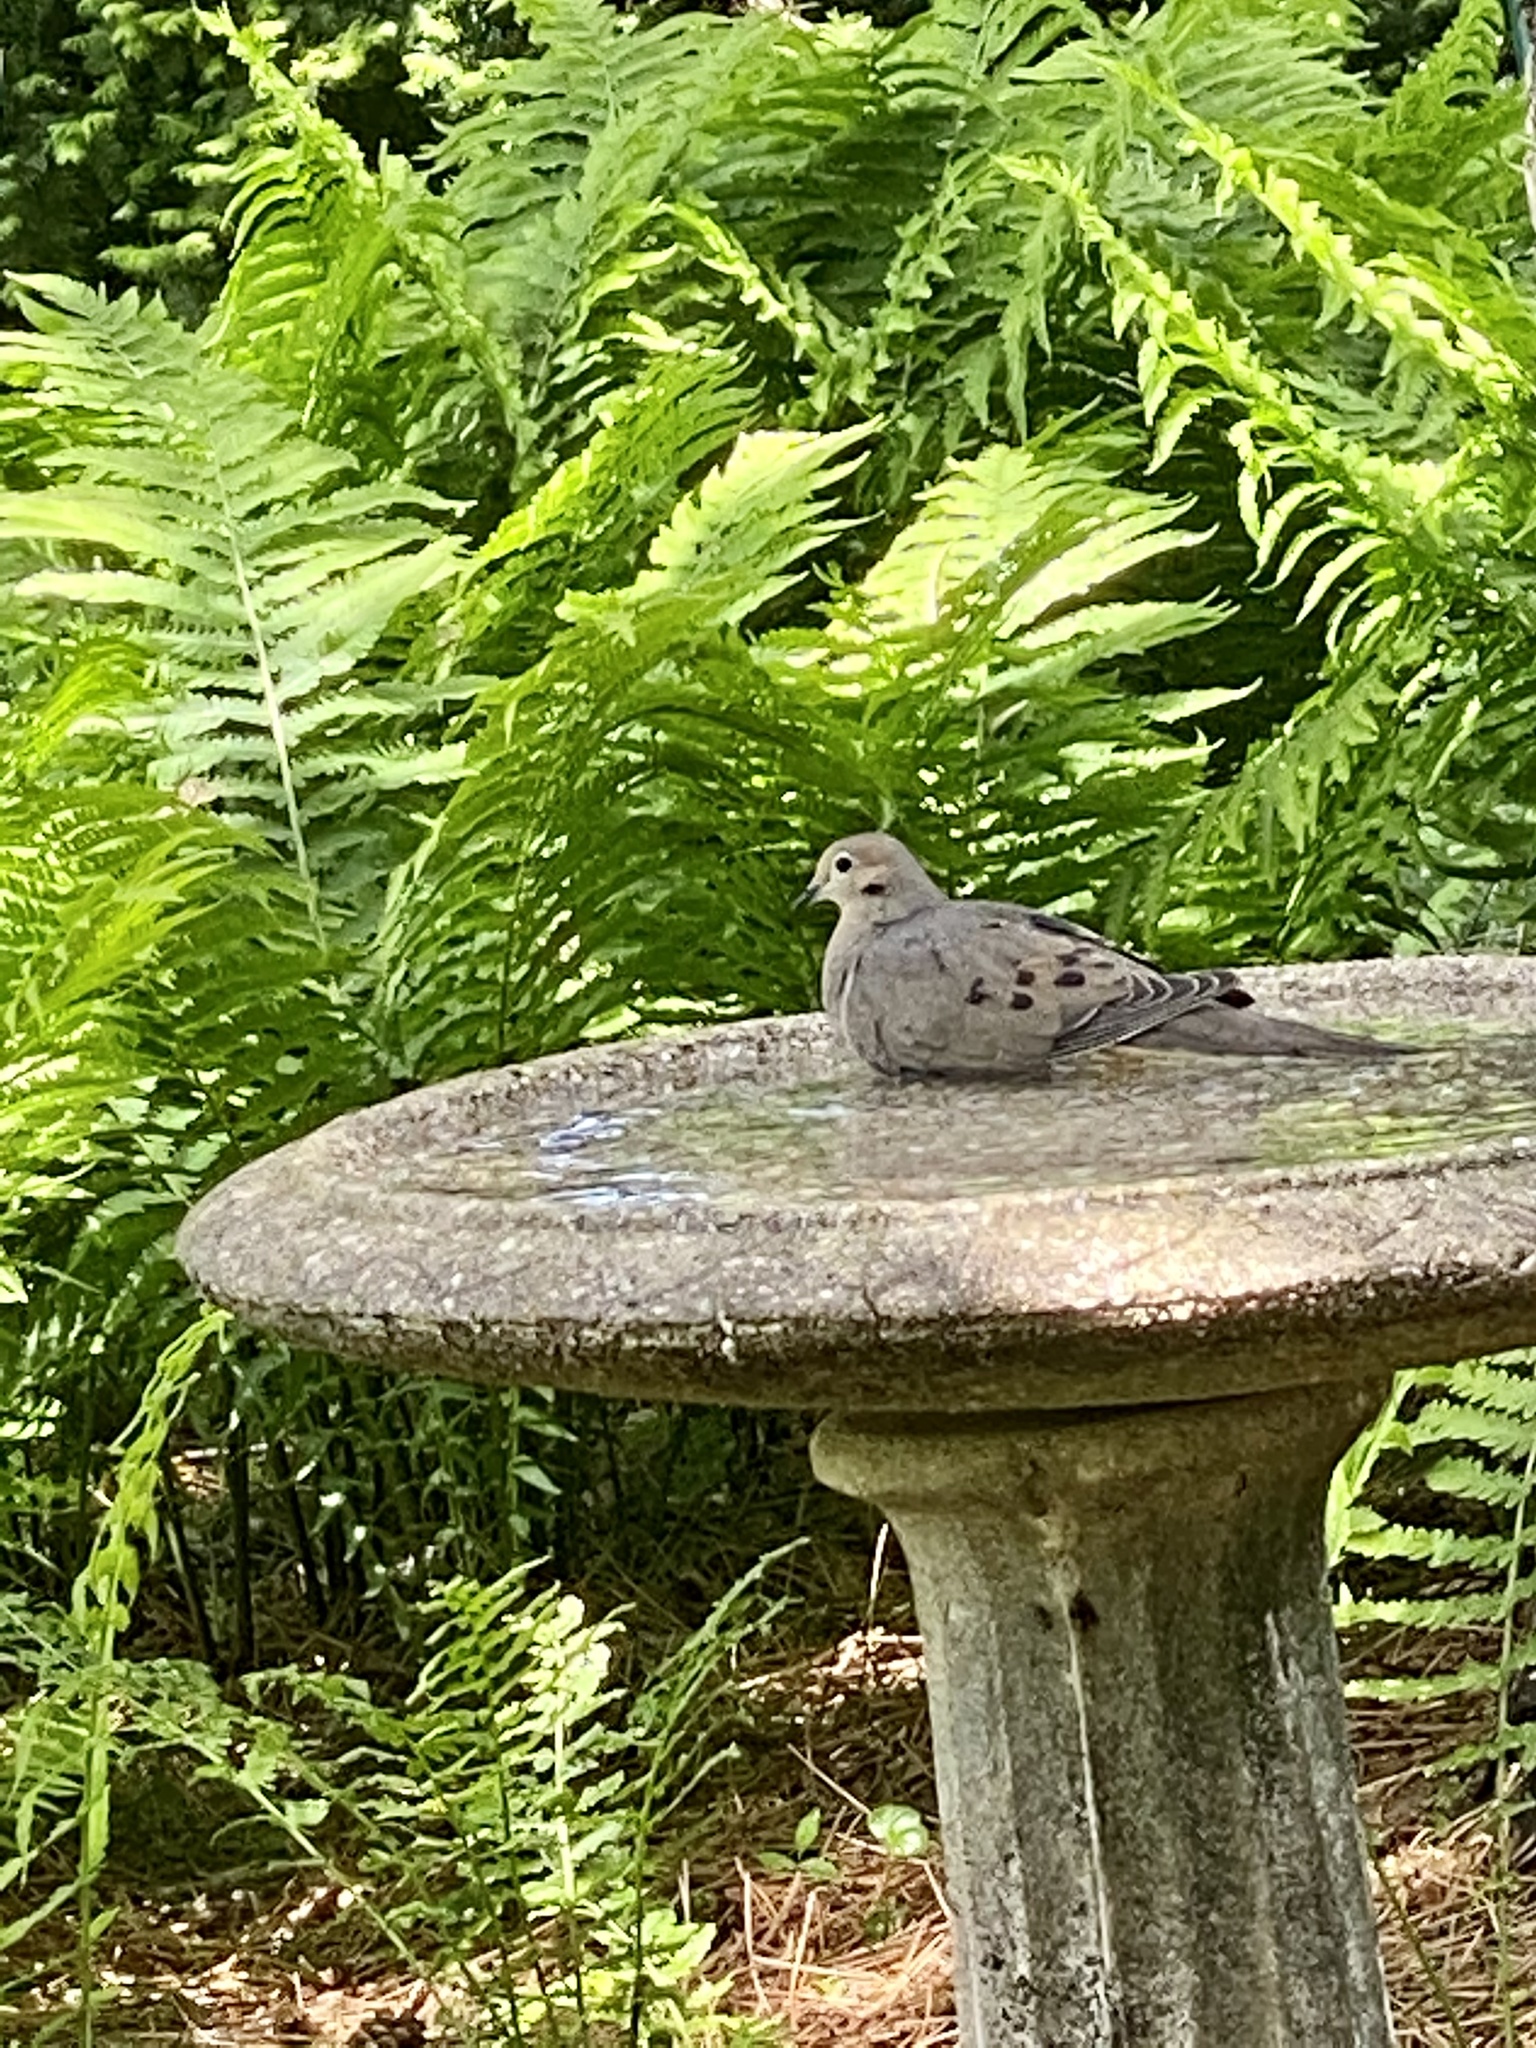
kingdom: Animalia
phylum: Chordata
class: Aves
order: Columbiformes
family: Columbidae
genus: Zenaida
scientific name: Zenaida macroura
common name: Mourning dove
